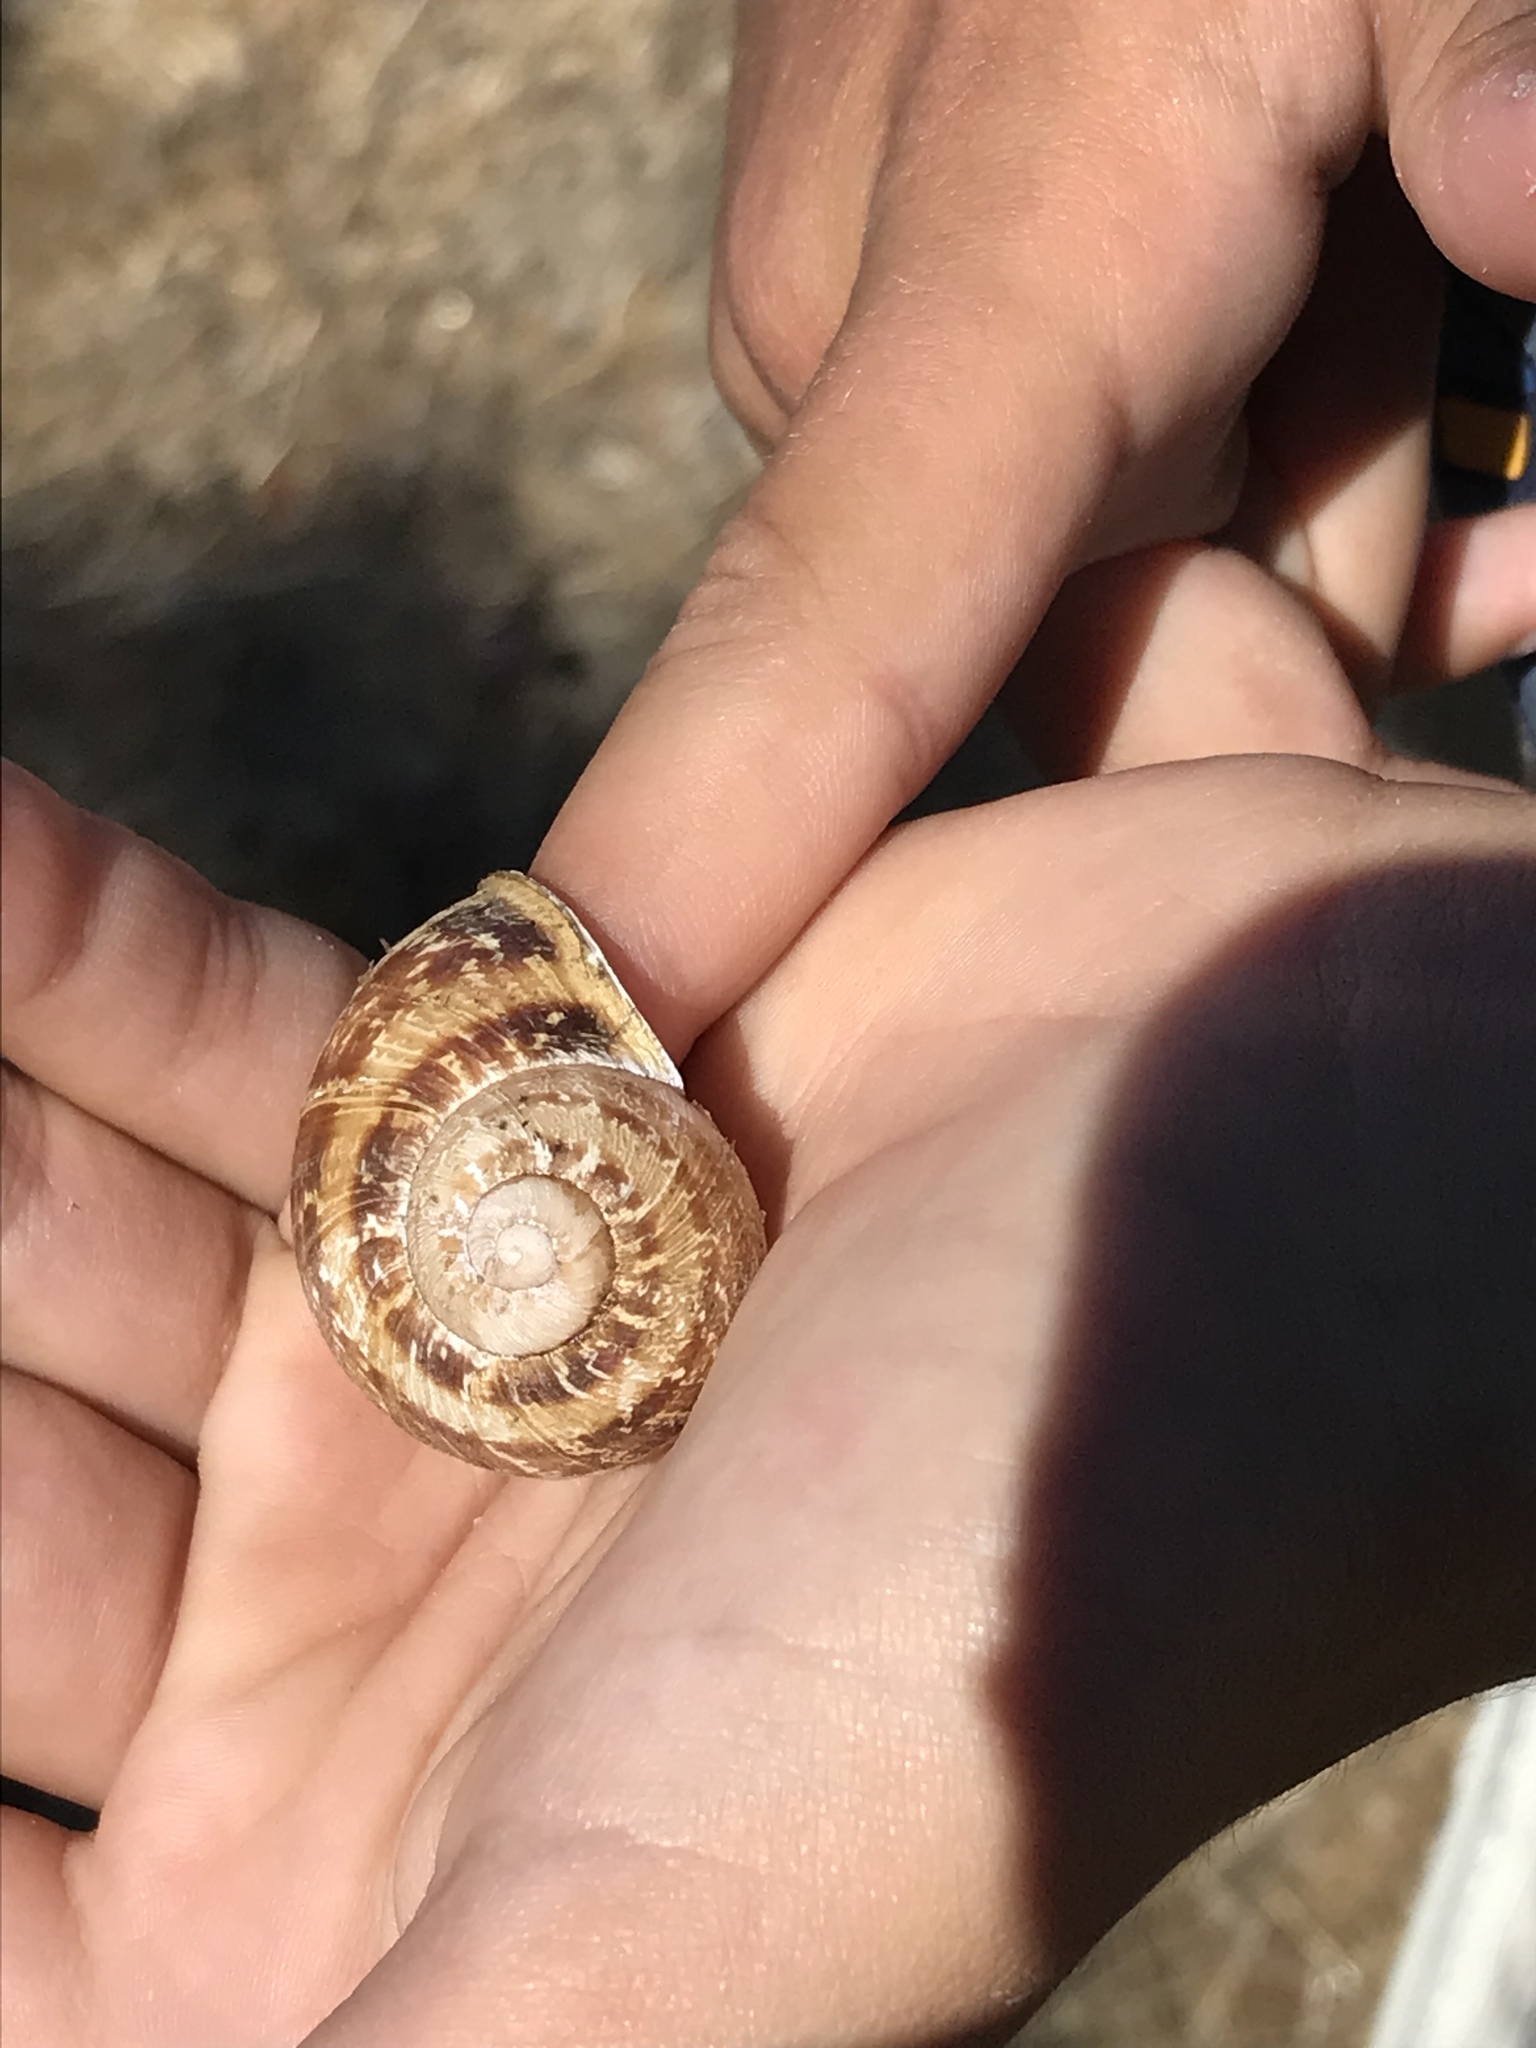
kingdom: Animalia
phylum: Mollusca
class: Gastropoda
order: Stylommatophora
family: Helicidae
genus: Cornu
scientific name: Cornu aspersum
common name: Brown garden snail
